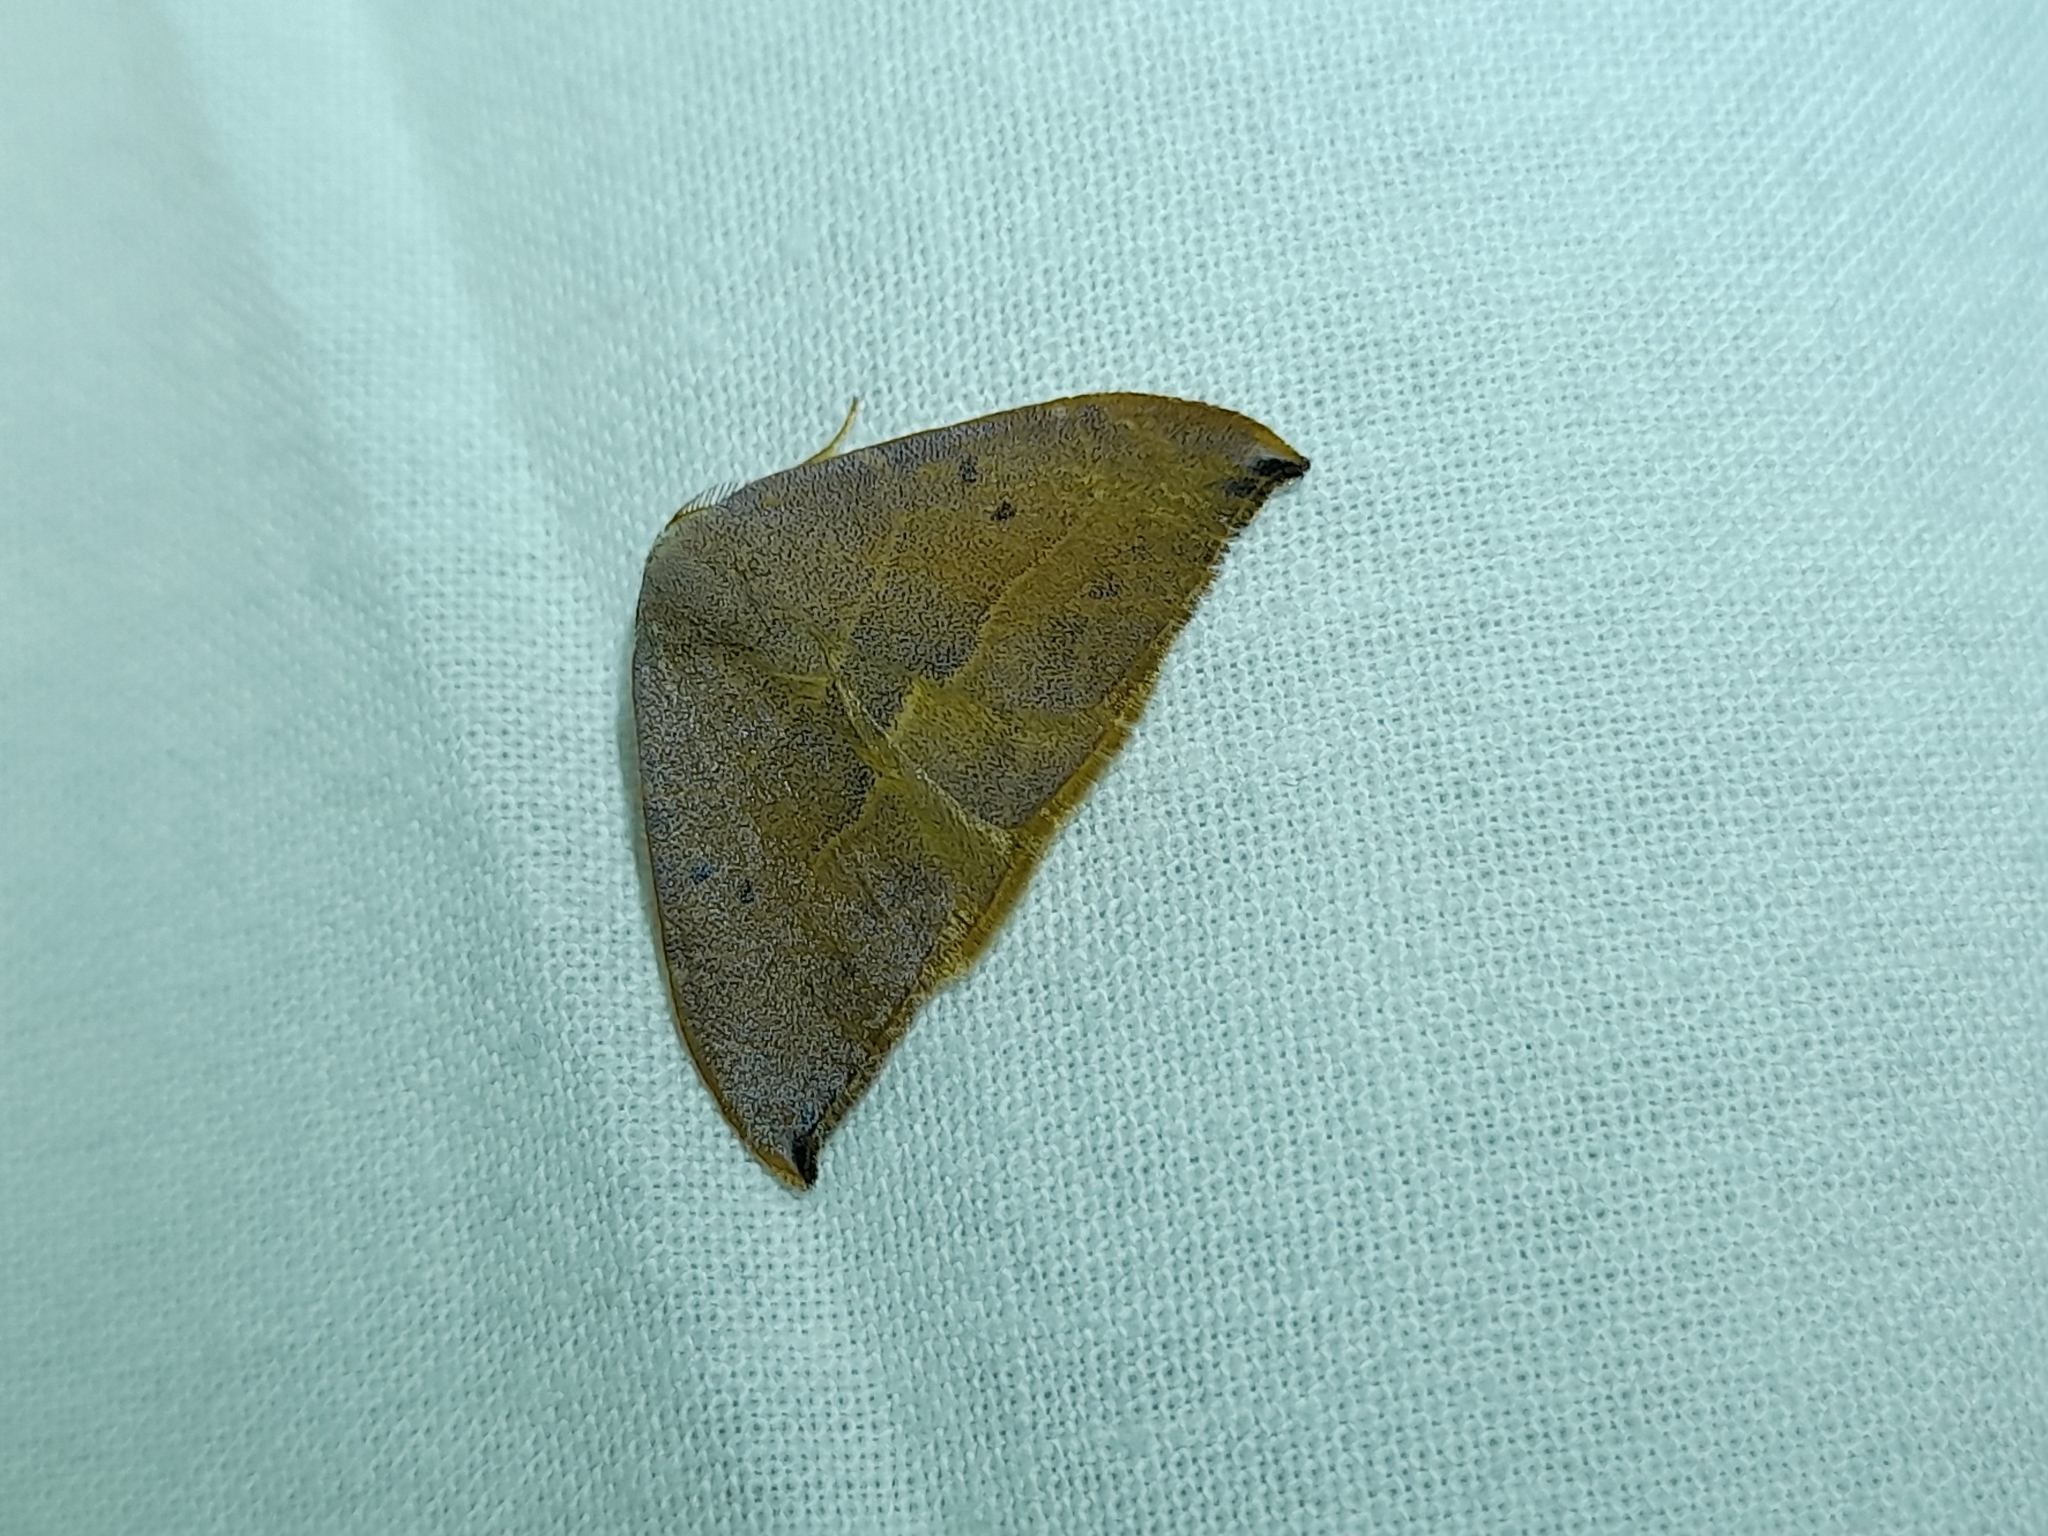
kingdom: Animalia
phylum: Arthropoda
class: Insecta
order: Lepidoptera
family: Drepanidae
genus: Watsonalla
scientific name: Watsonalla uncinula
